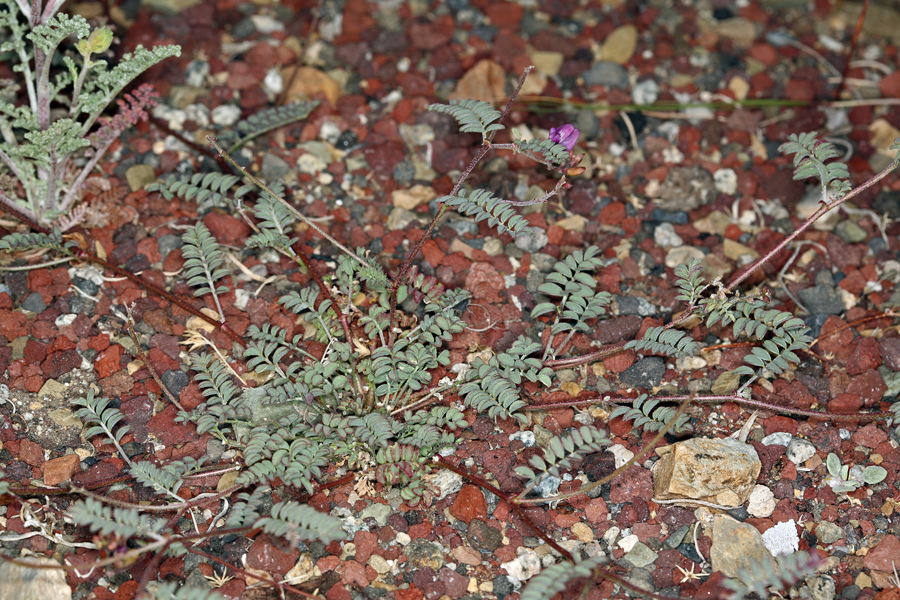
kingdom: Plantae
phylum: Tracheophyta
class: Magnoliopsida
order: Fabales
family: Fabaceae
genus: Astragalus
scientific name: Astragalus inyoensis
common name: Inyo locoweed
